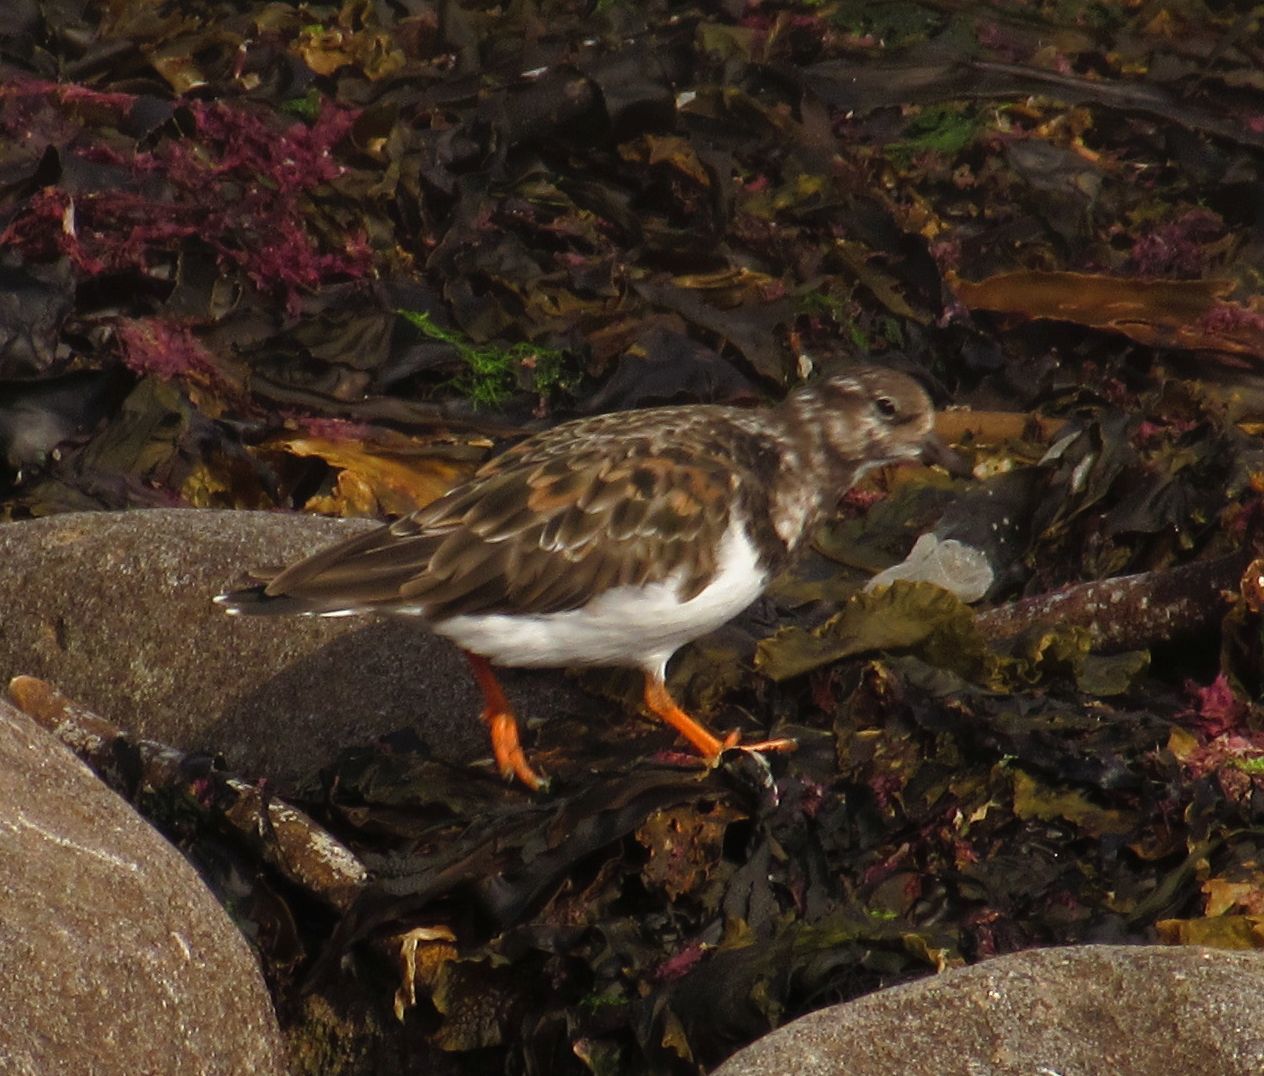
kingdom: Animalia
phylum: Chordata
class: Aves
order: Charadriiformes
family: Scolopacidae
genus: Arenaria
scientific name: Arenaria interpres
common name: Ruddy turnstone
